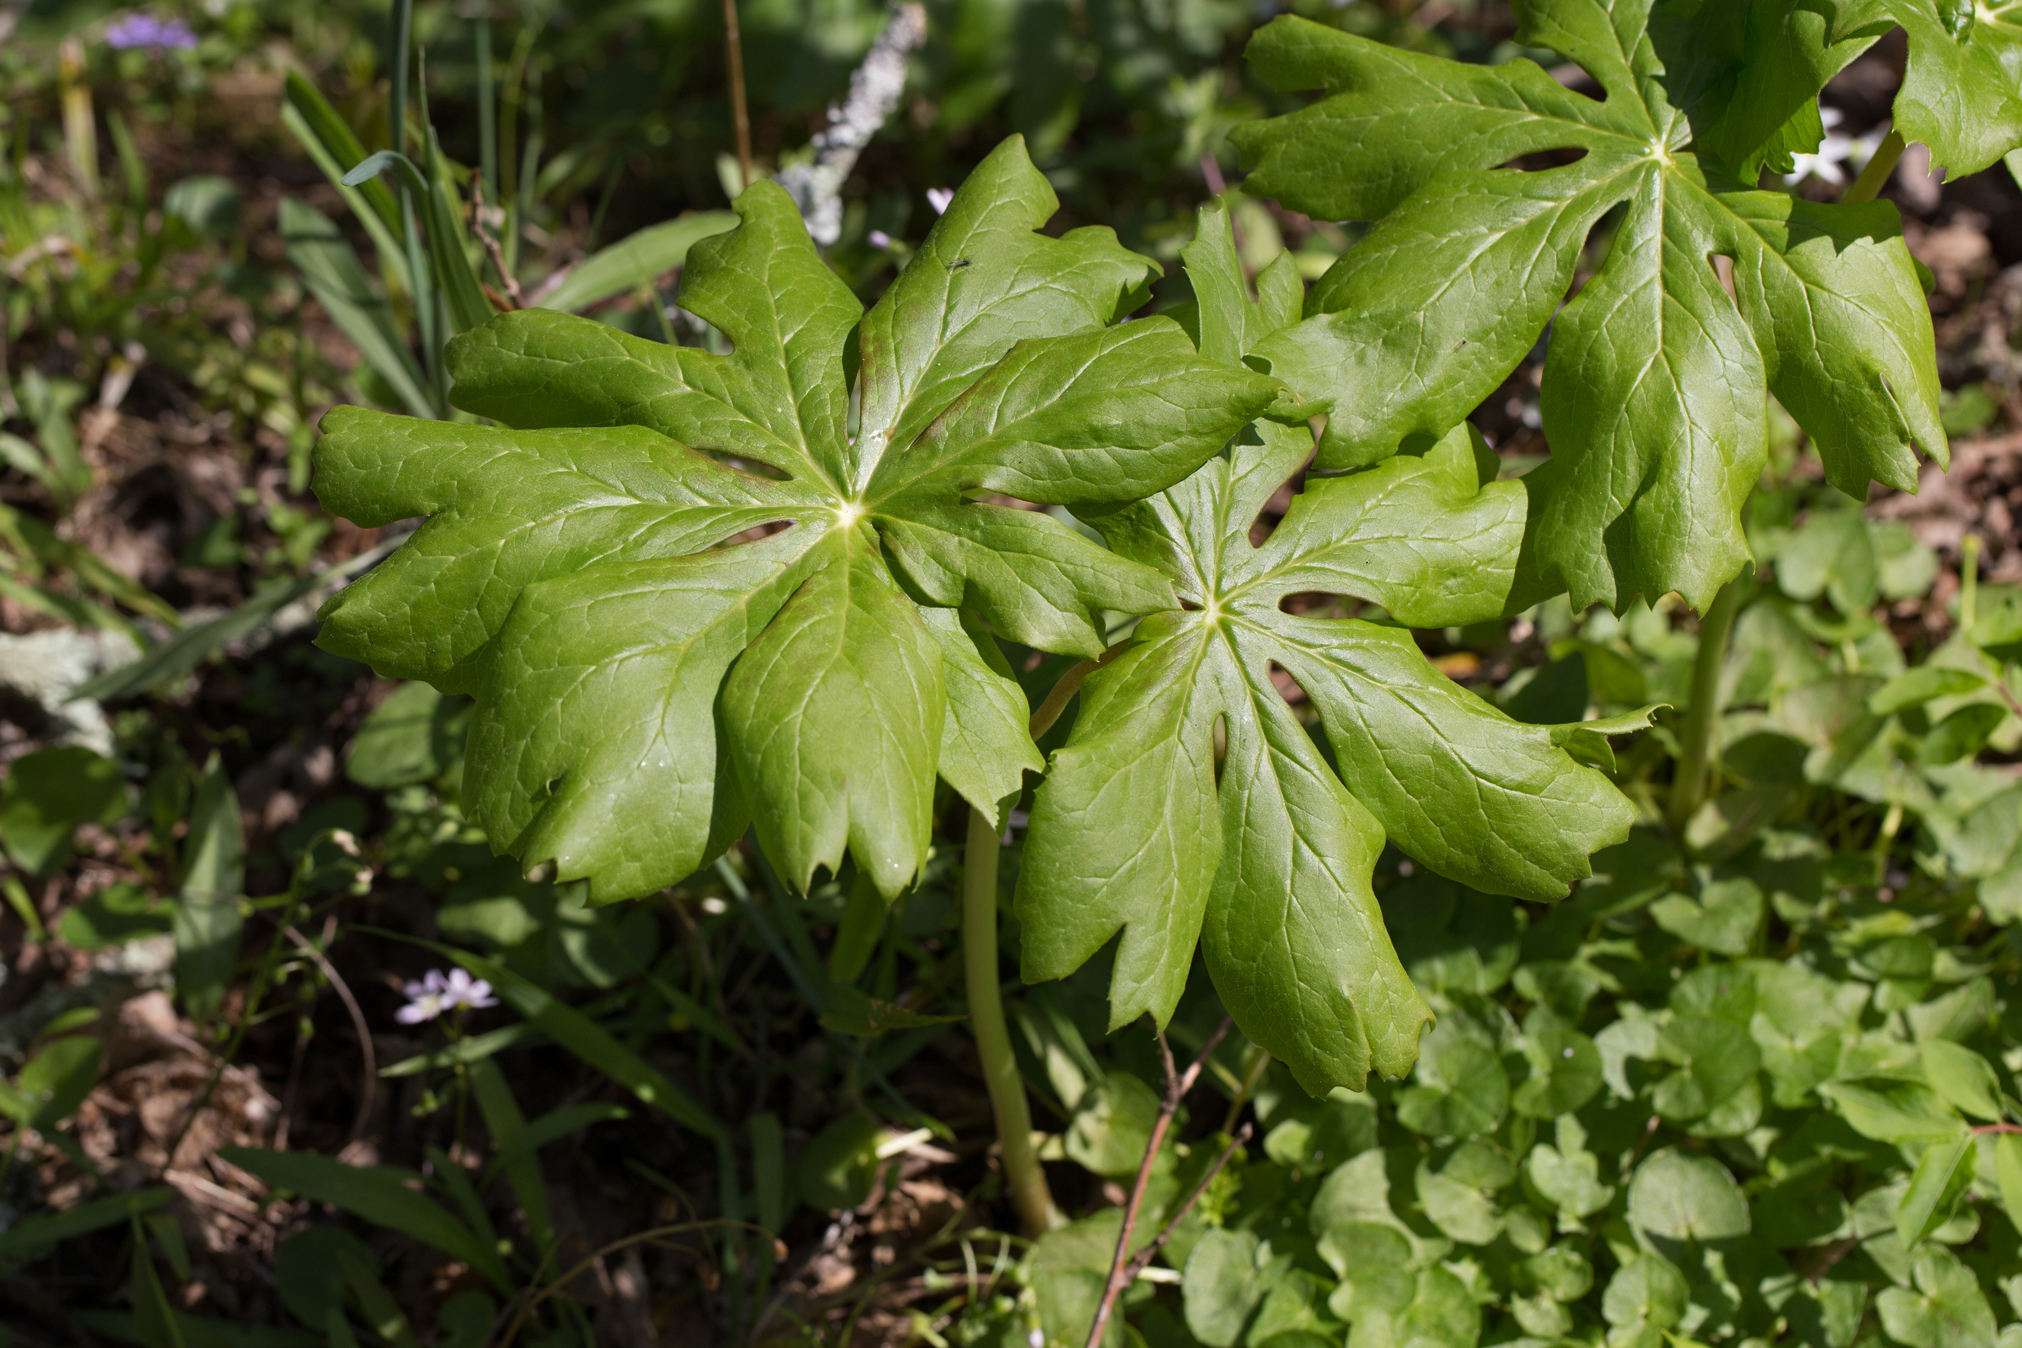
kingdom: Plantae
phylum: Tracheophyta
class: Magnoliopsida
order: Ranunculales
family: Berberidaceae
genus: Podophyllum
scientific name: Podophyllum peltatum
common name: Wild mandrake
